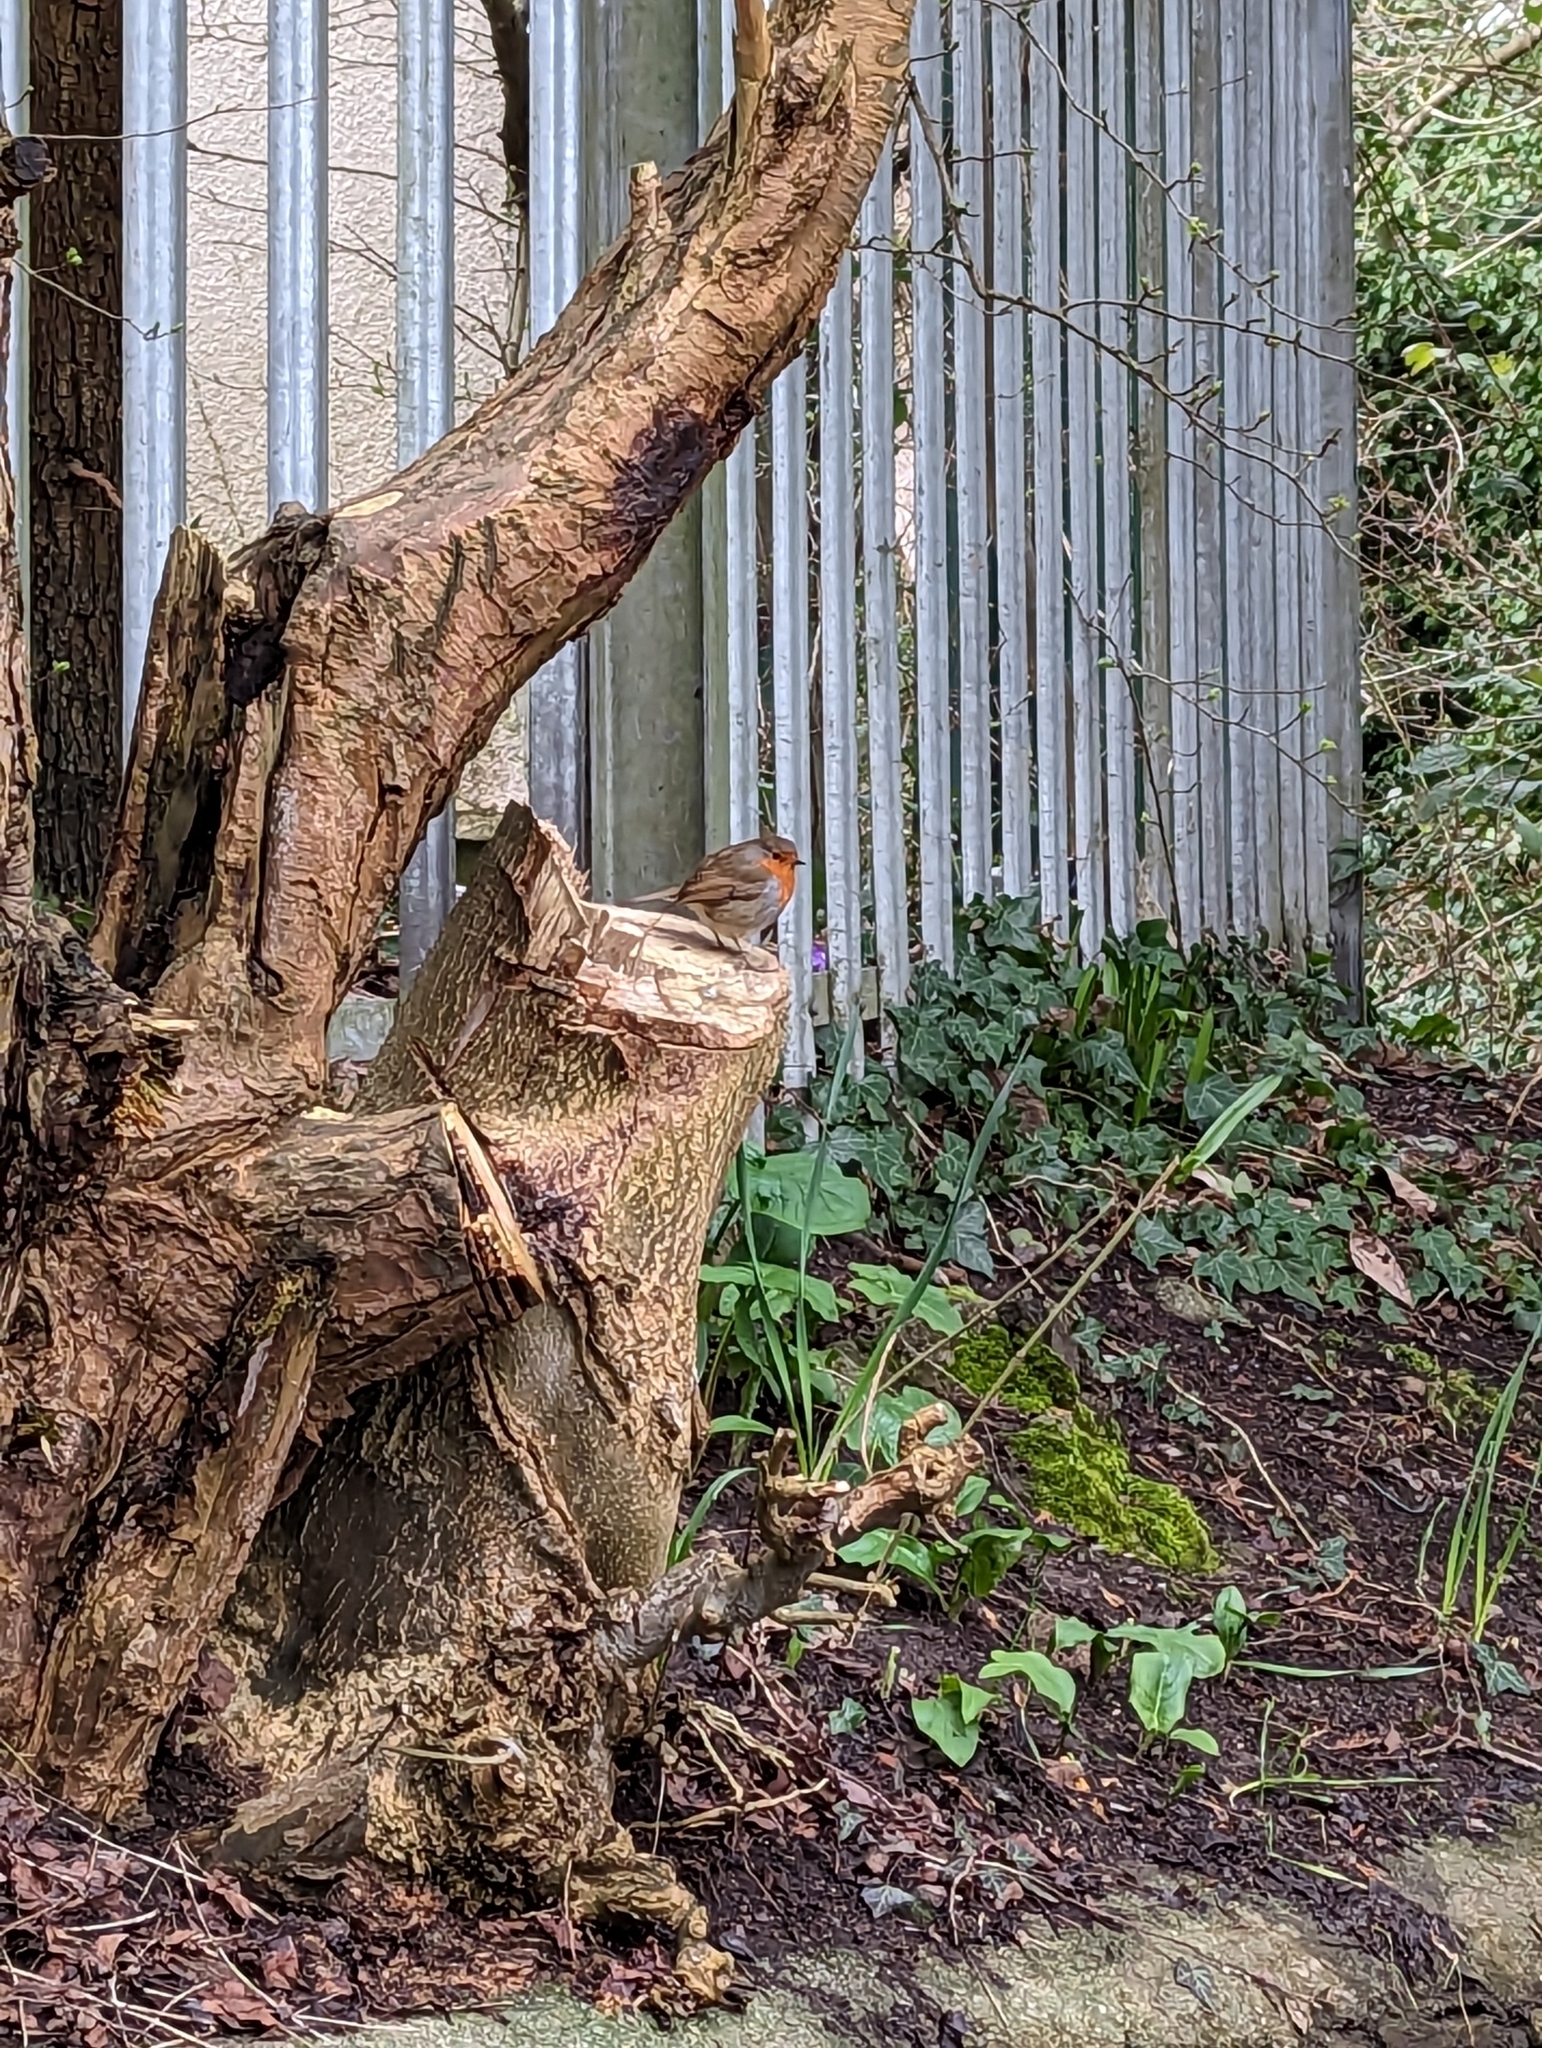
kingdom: Animalia
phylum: Chordata
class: Aves
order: Passeriformes
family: Muscicapidae
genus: Erithacus
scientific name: Erithacus rubecula
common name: European robin
